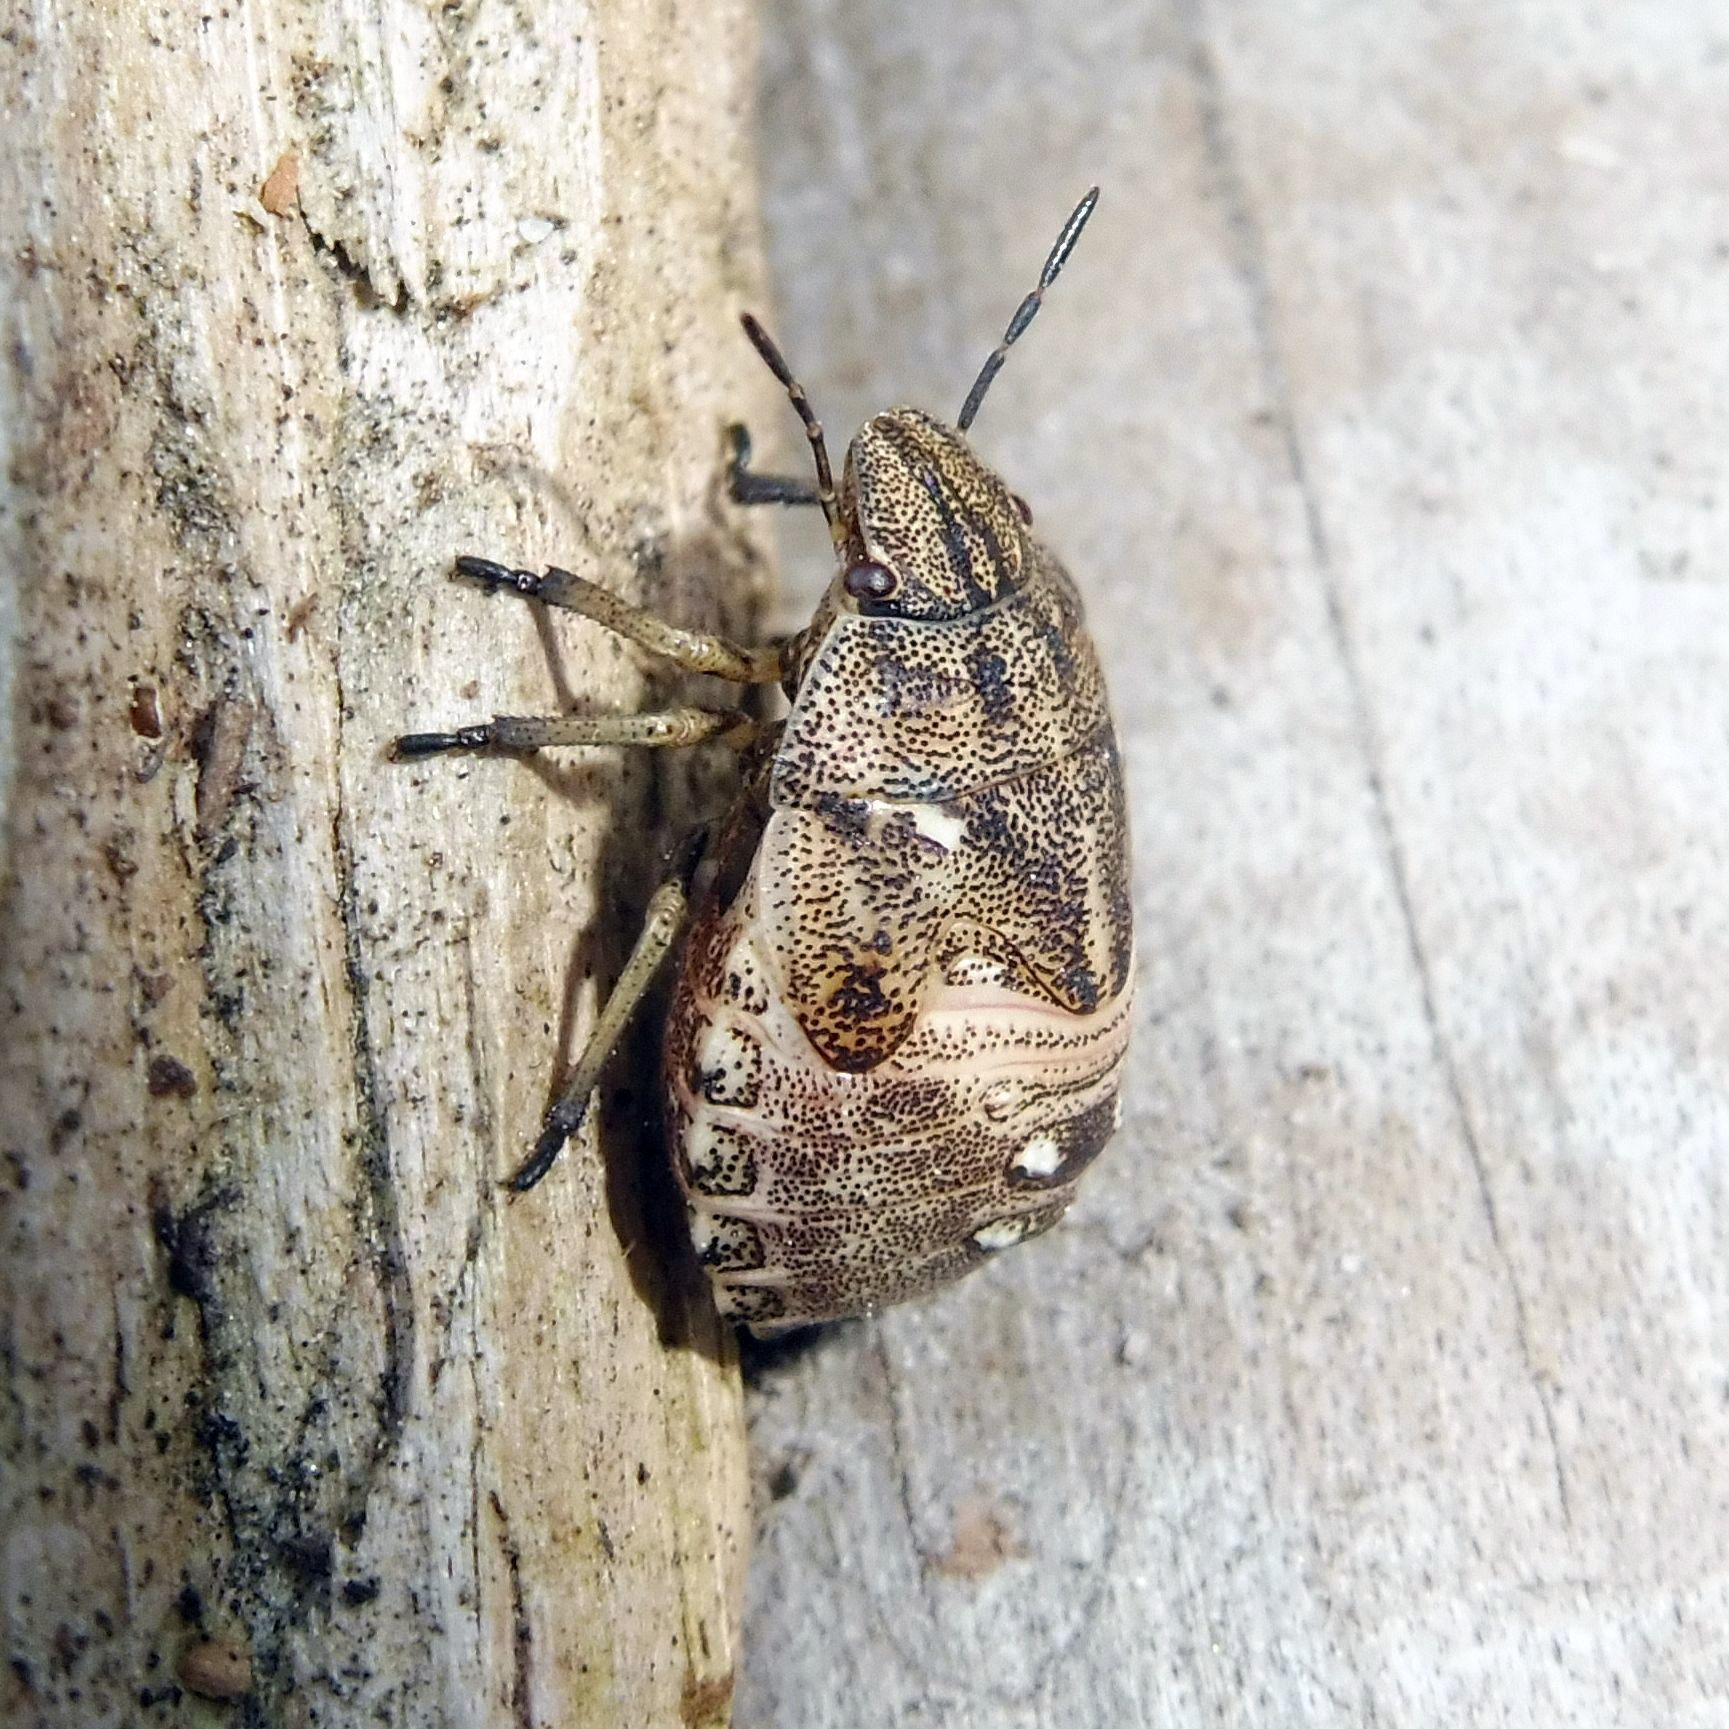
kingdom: Animalia
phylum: Arthropoda
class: Insecta
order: Hemiptera
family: Scutelleridae
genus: Eurygaster
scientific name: Eurygaster testudinaria
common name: Tortoise bug
